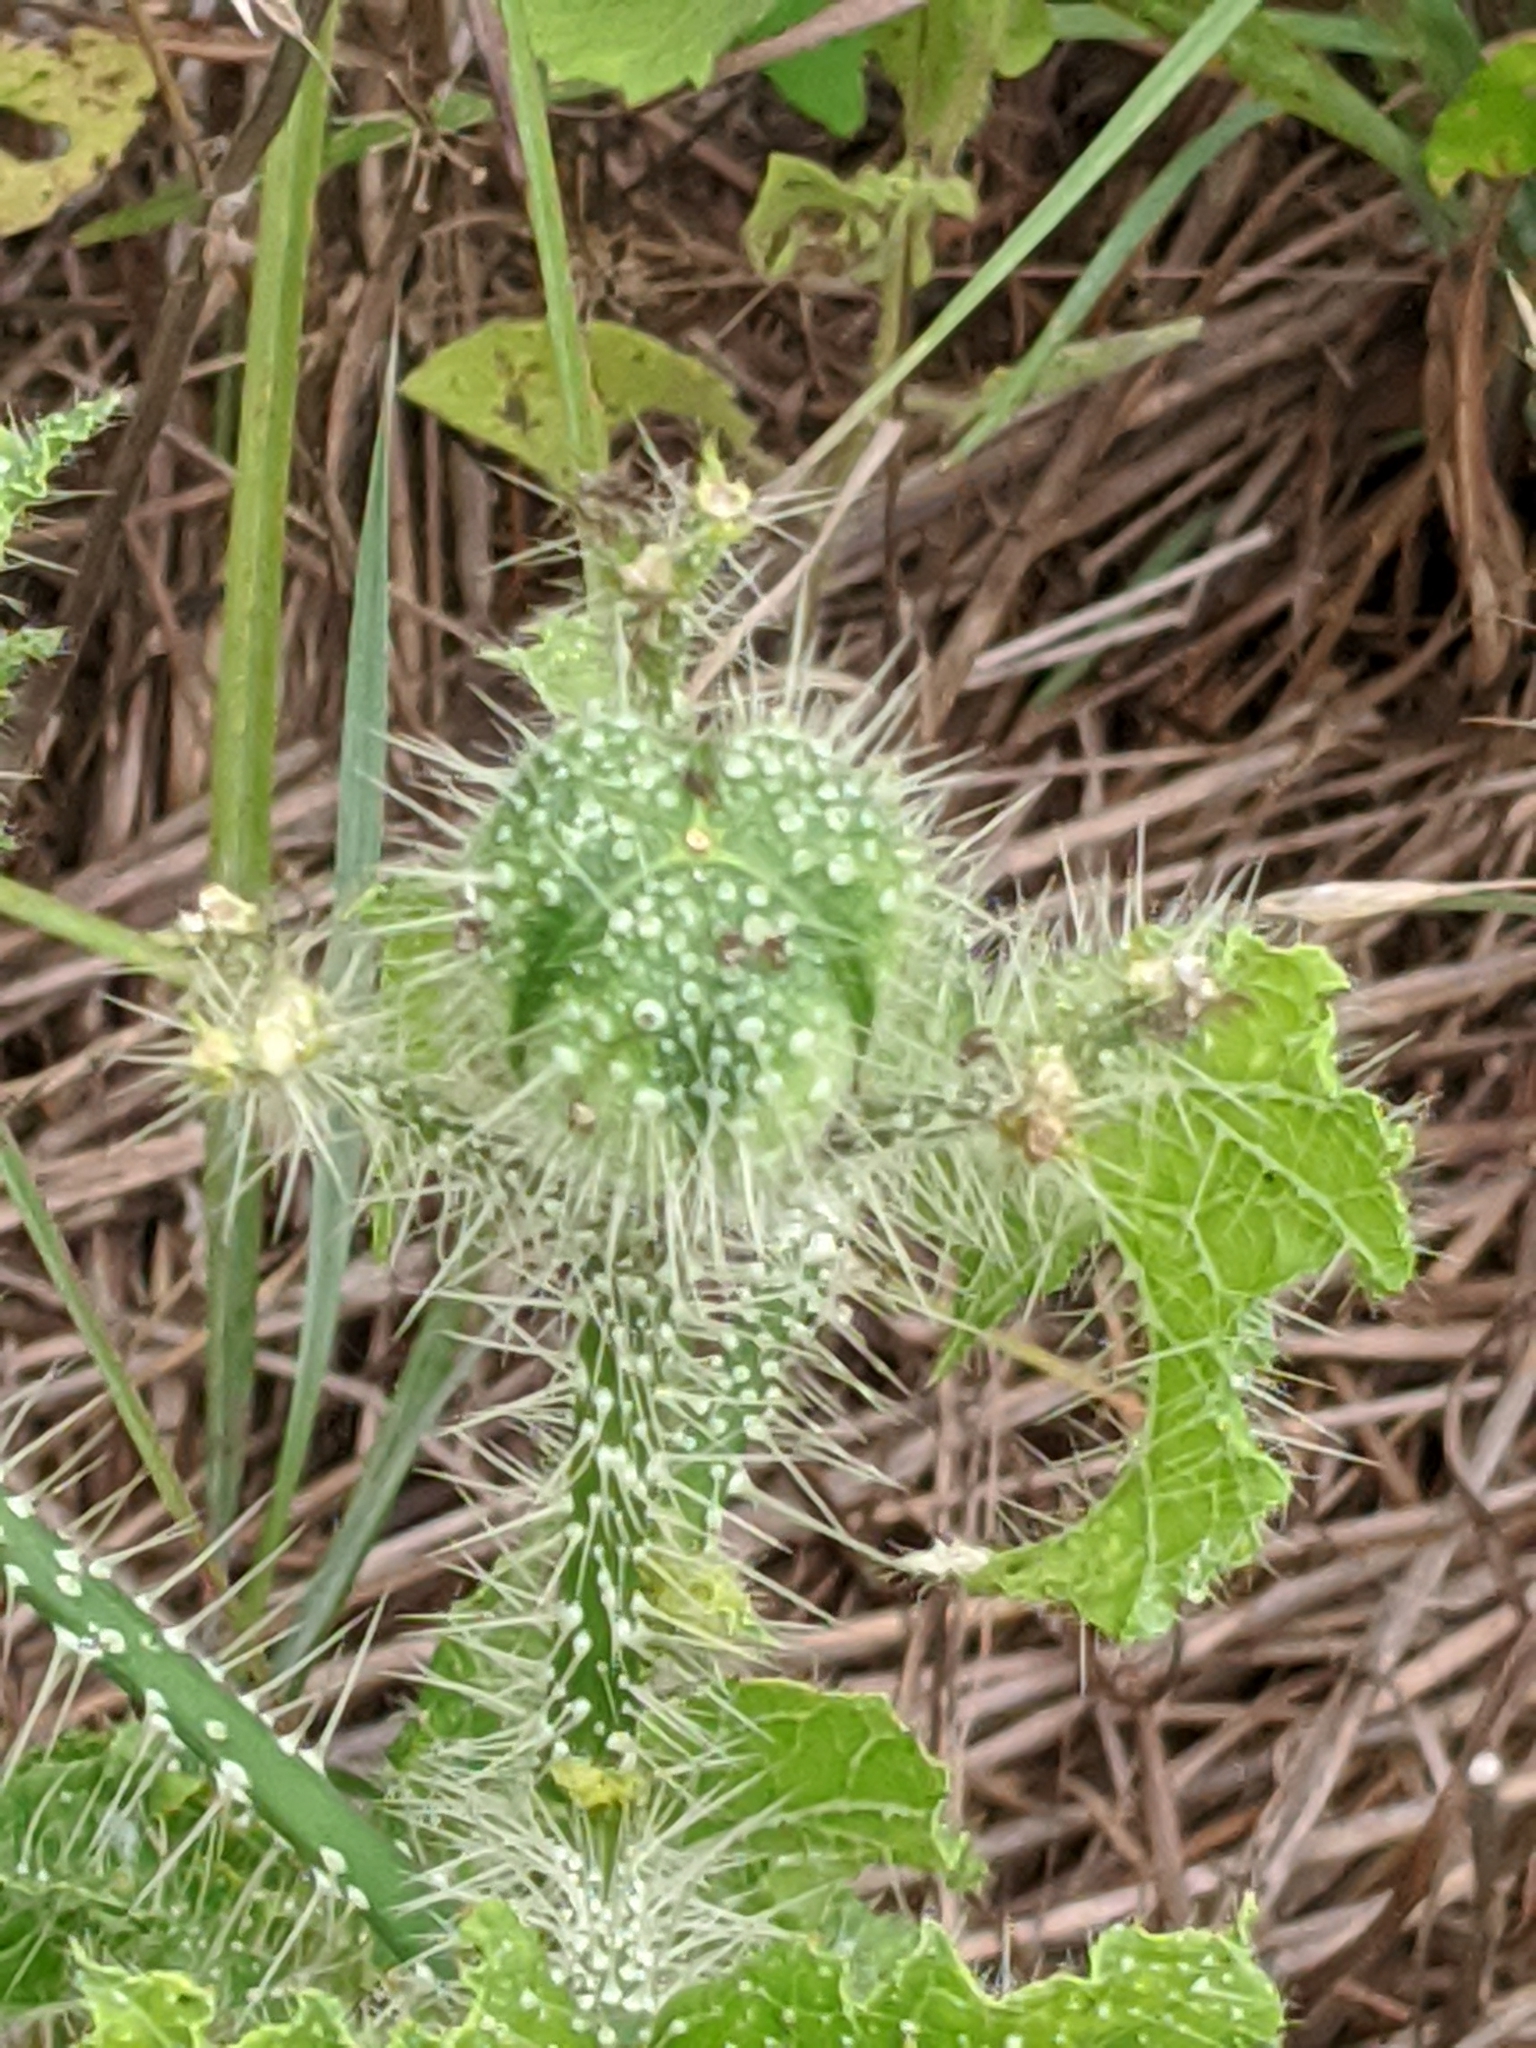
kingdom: Plantae
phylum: Tracheophyta
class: Magnoliopsida
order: Malpighiales
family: Euphorbiaceae
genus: Cnidoscolus
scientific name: Cnidoscolus texanus
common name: Texas bull-nettle
